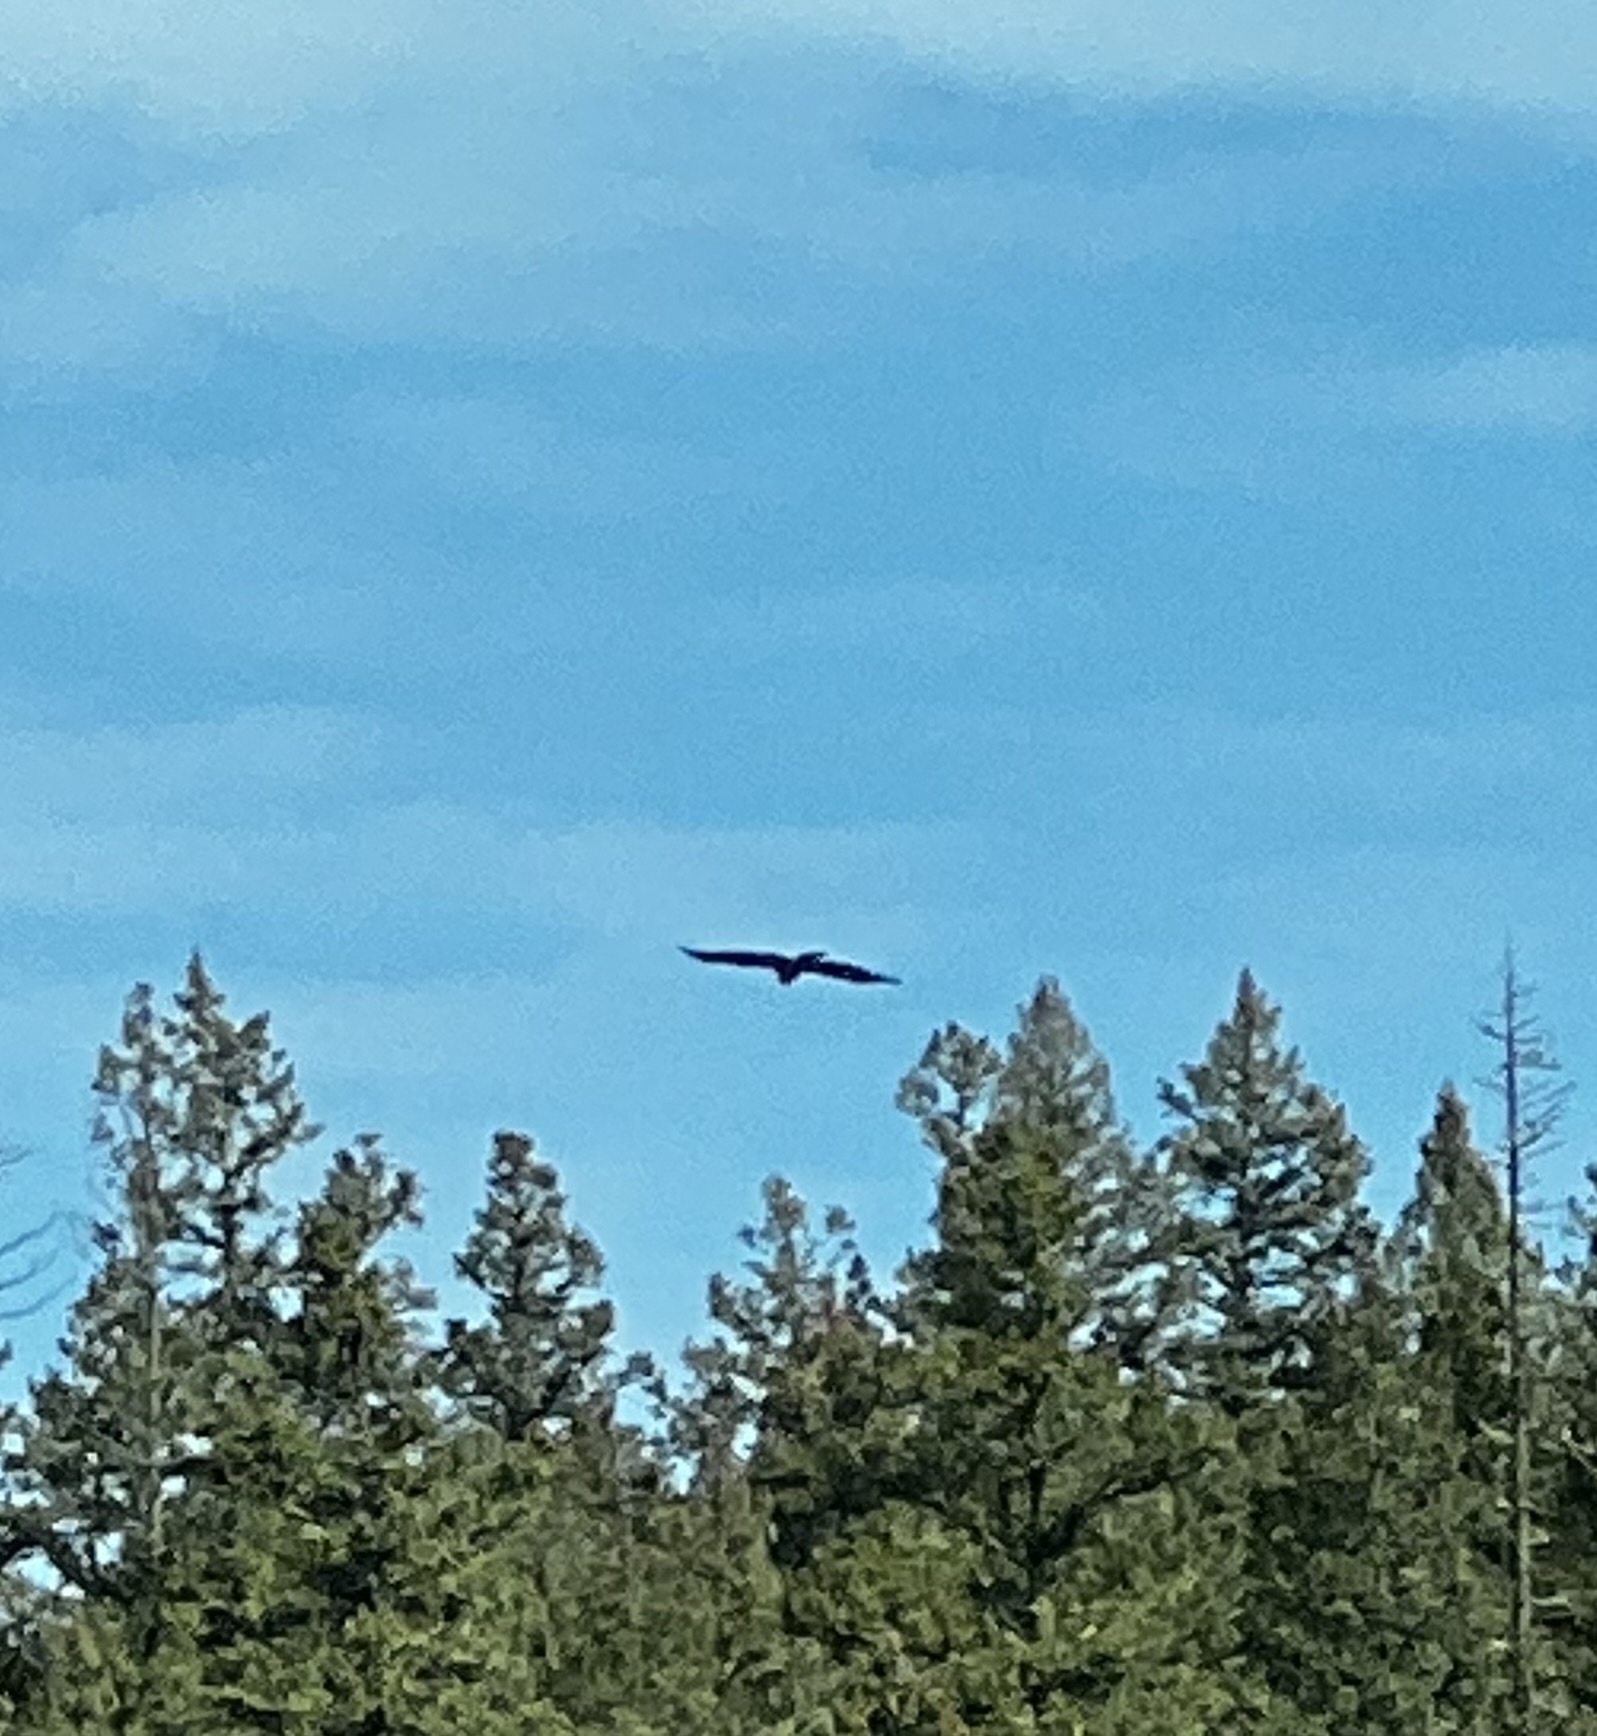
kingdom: Animalia
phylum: Chordata
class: Aves
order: Accipitriformes
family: Accipitridae
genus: Buteo
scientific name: Buteo jamaicensis
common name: Red-tailed hawk
